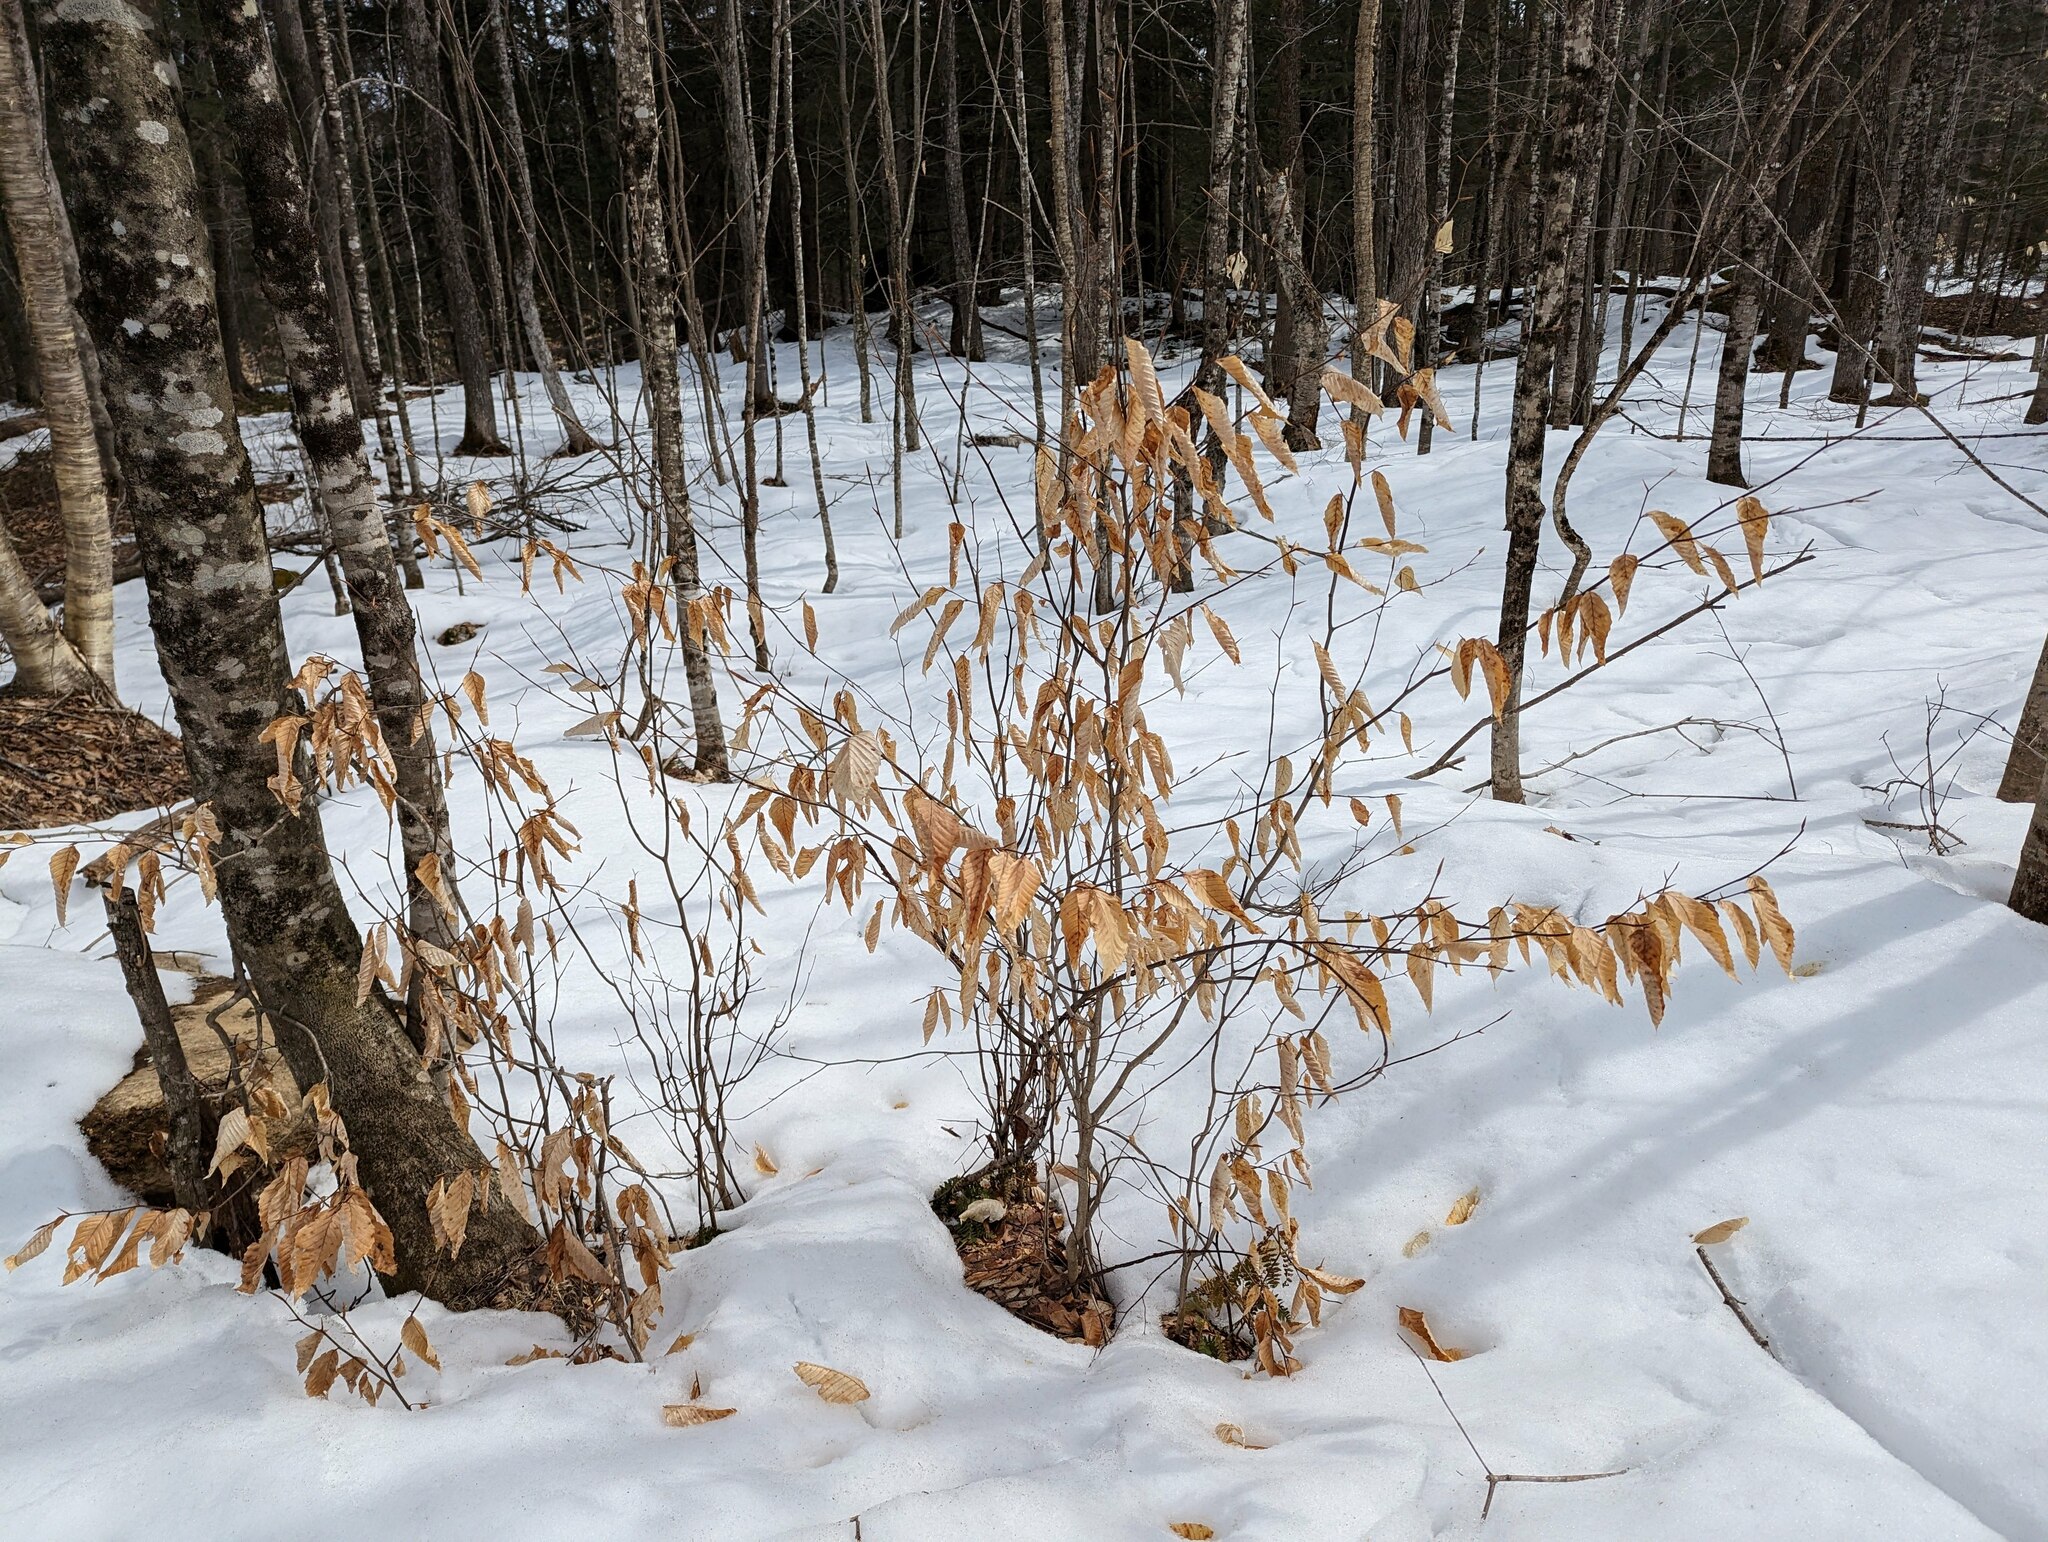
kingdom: Plantae
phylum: Tracheophyta
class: Magnoliopsida
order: Fagales
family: Fagaceae
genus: Fagus
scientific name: Fagus grandifolia
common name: American beech
